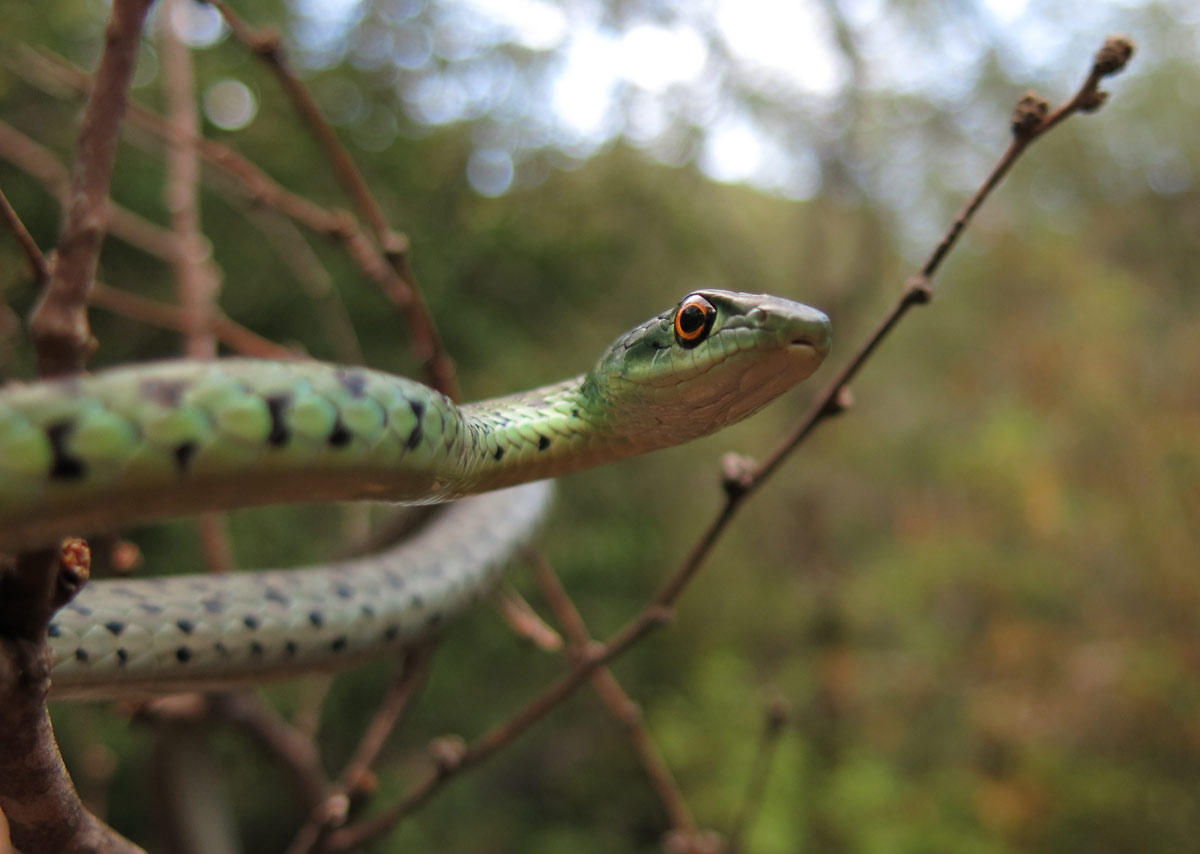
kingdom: Animalia
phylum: Chordata
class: Squamata
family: Colubridae
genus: Philothamnus
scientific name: Philothamnus semivariegatus
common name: Spotted bush snake
